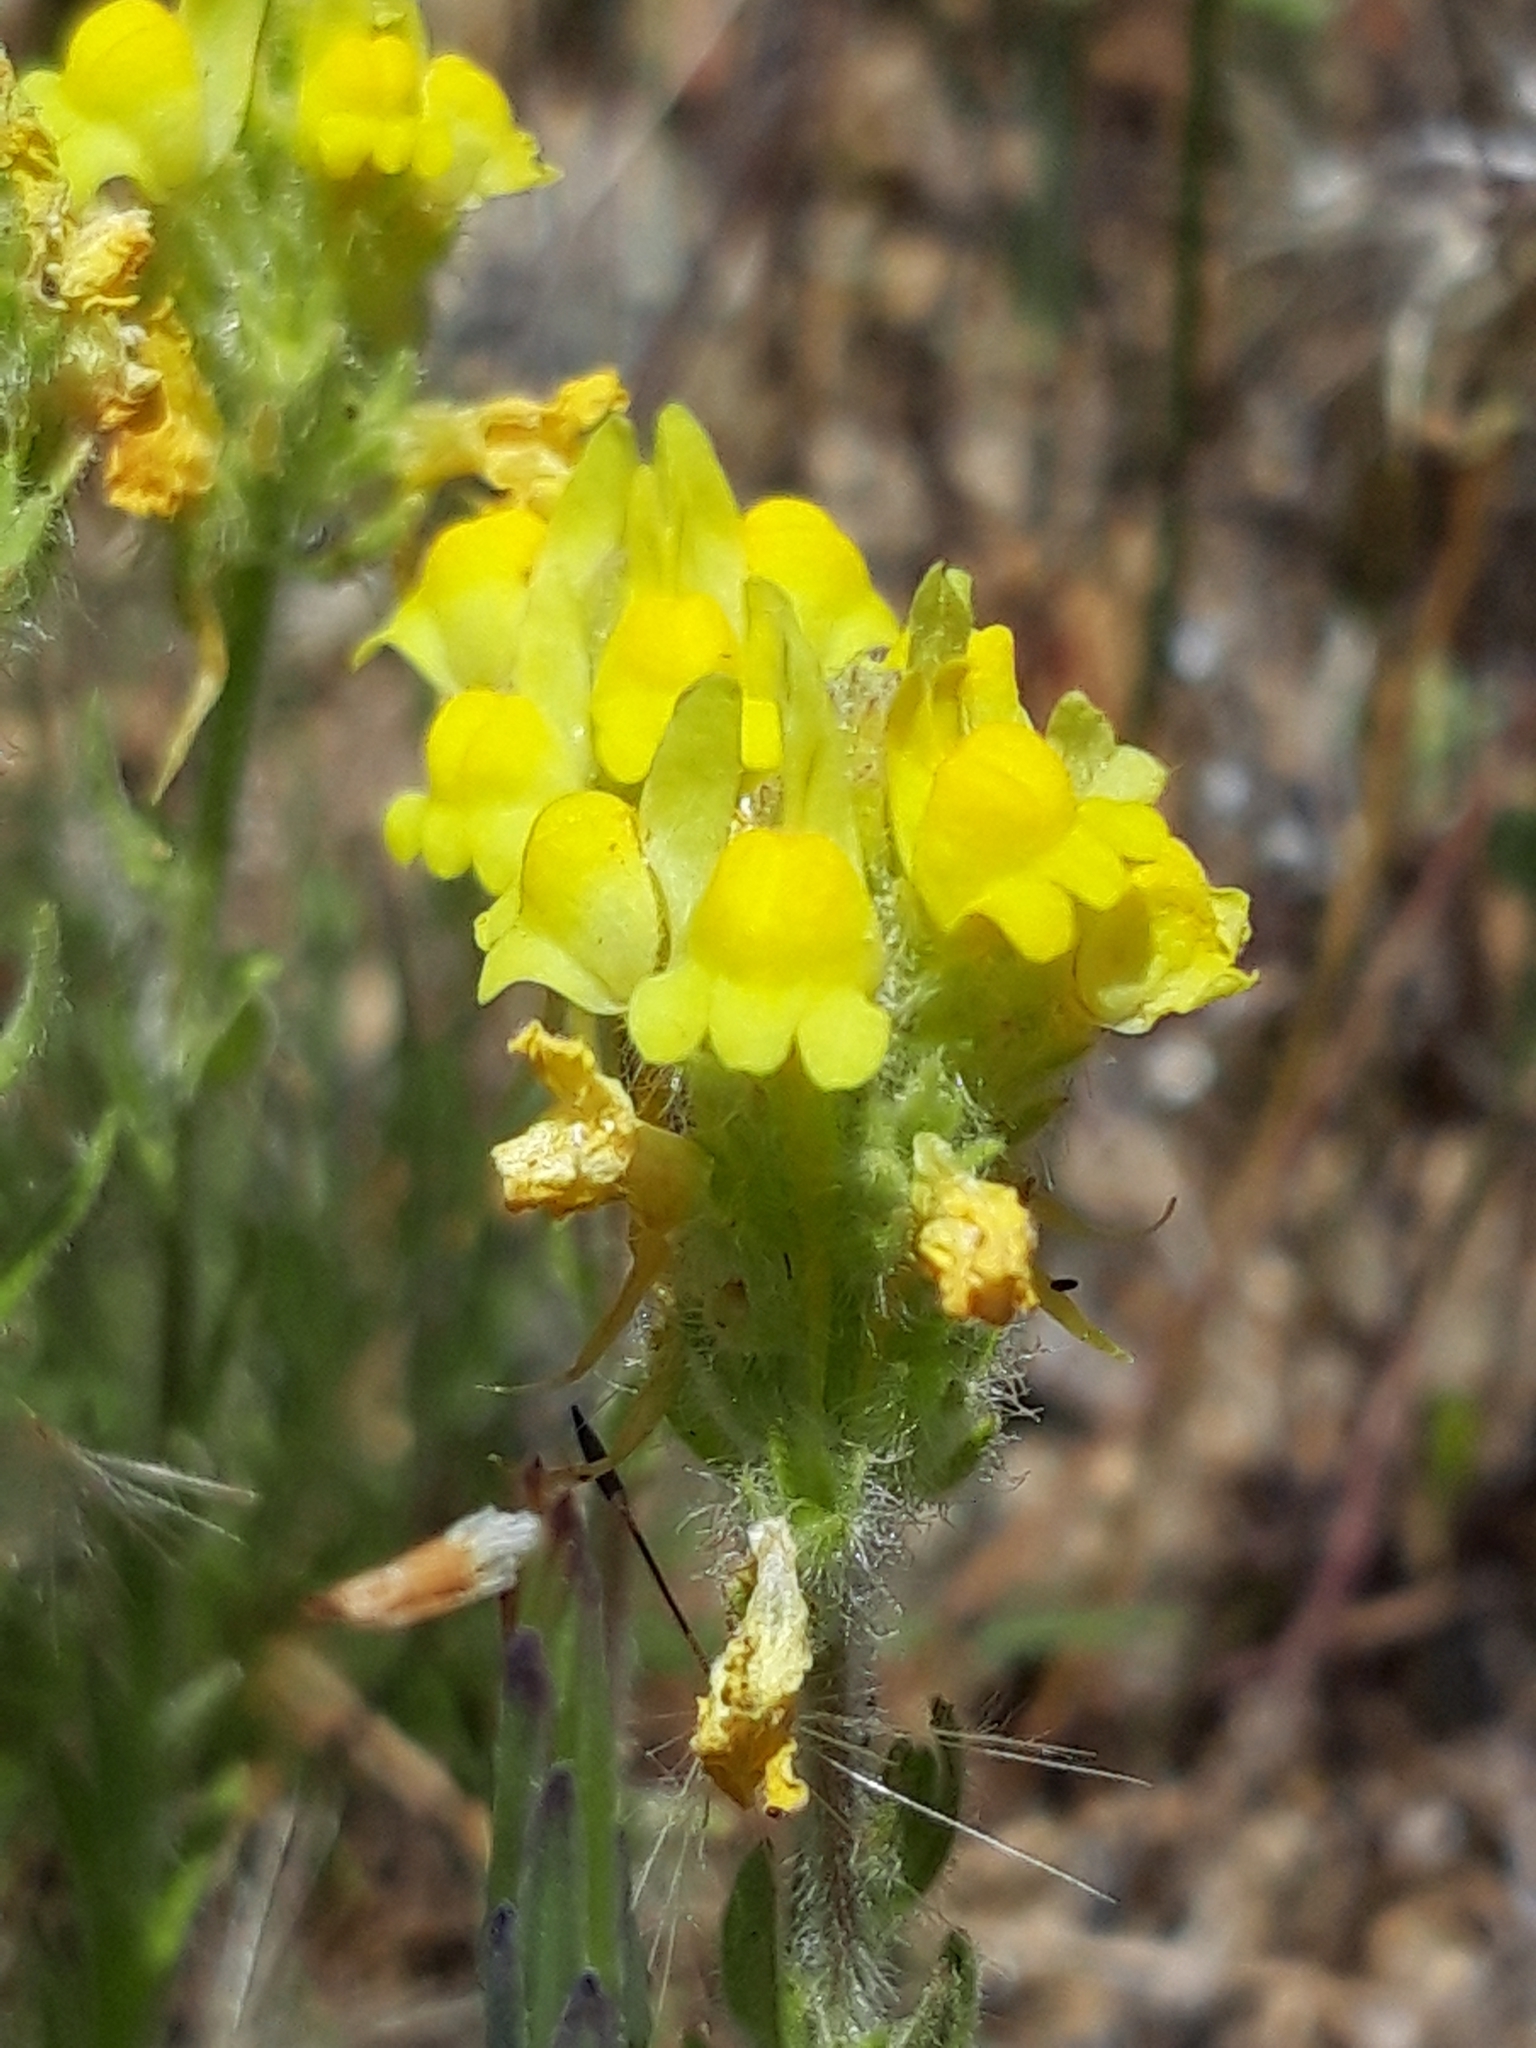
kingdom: Plantae
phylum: Tracheophyta
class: Magnoliopsida
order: Lamiales
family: Plantaginaceae
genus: Linaria
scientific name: Linaria saxatilis
